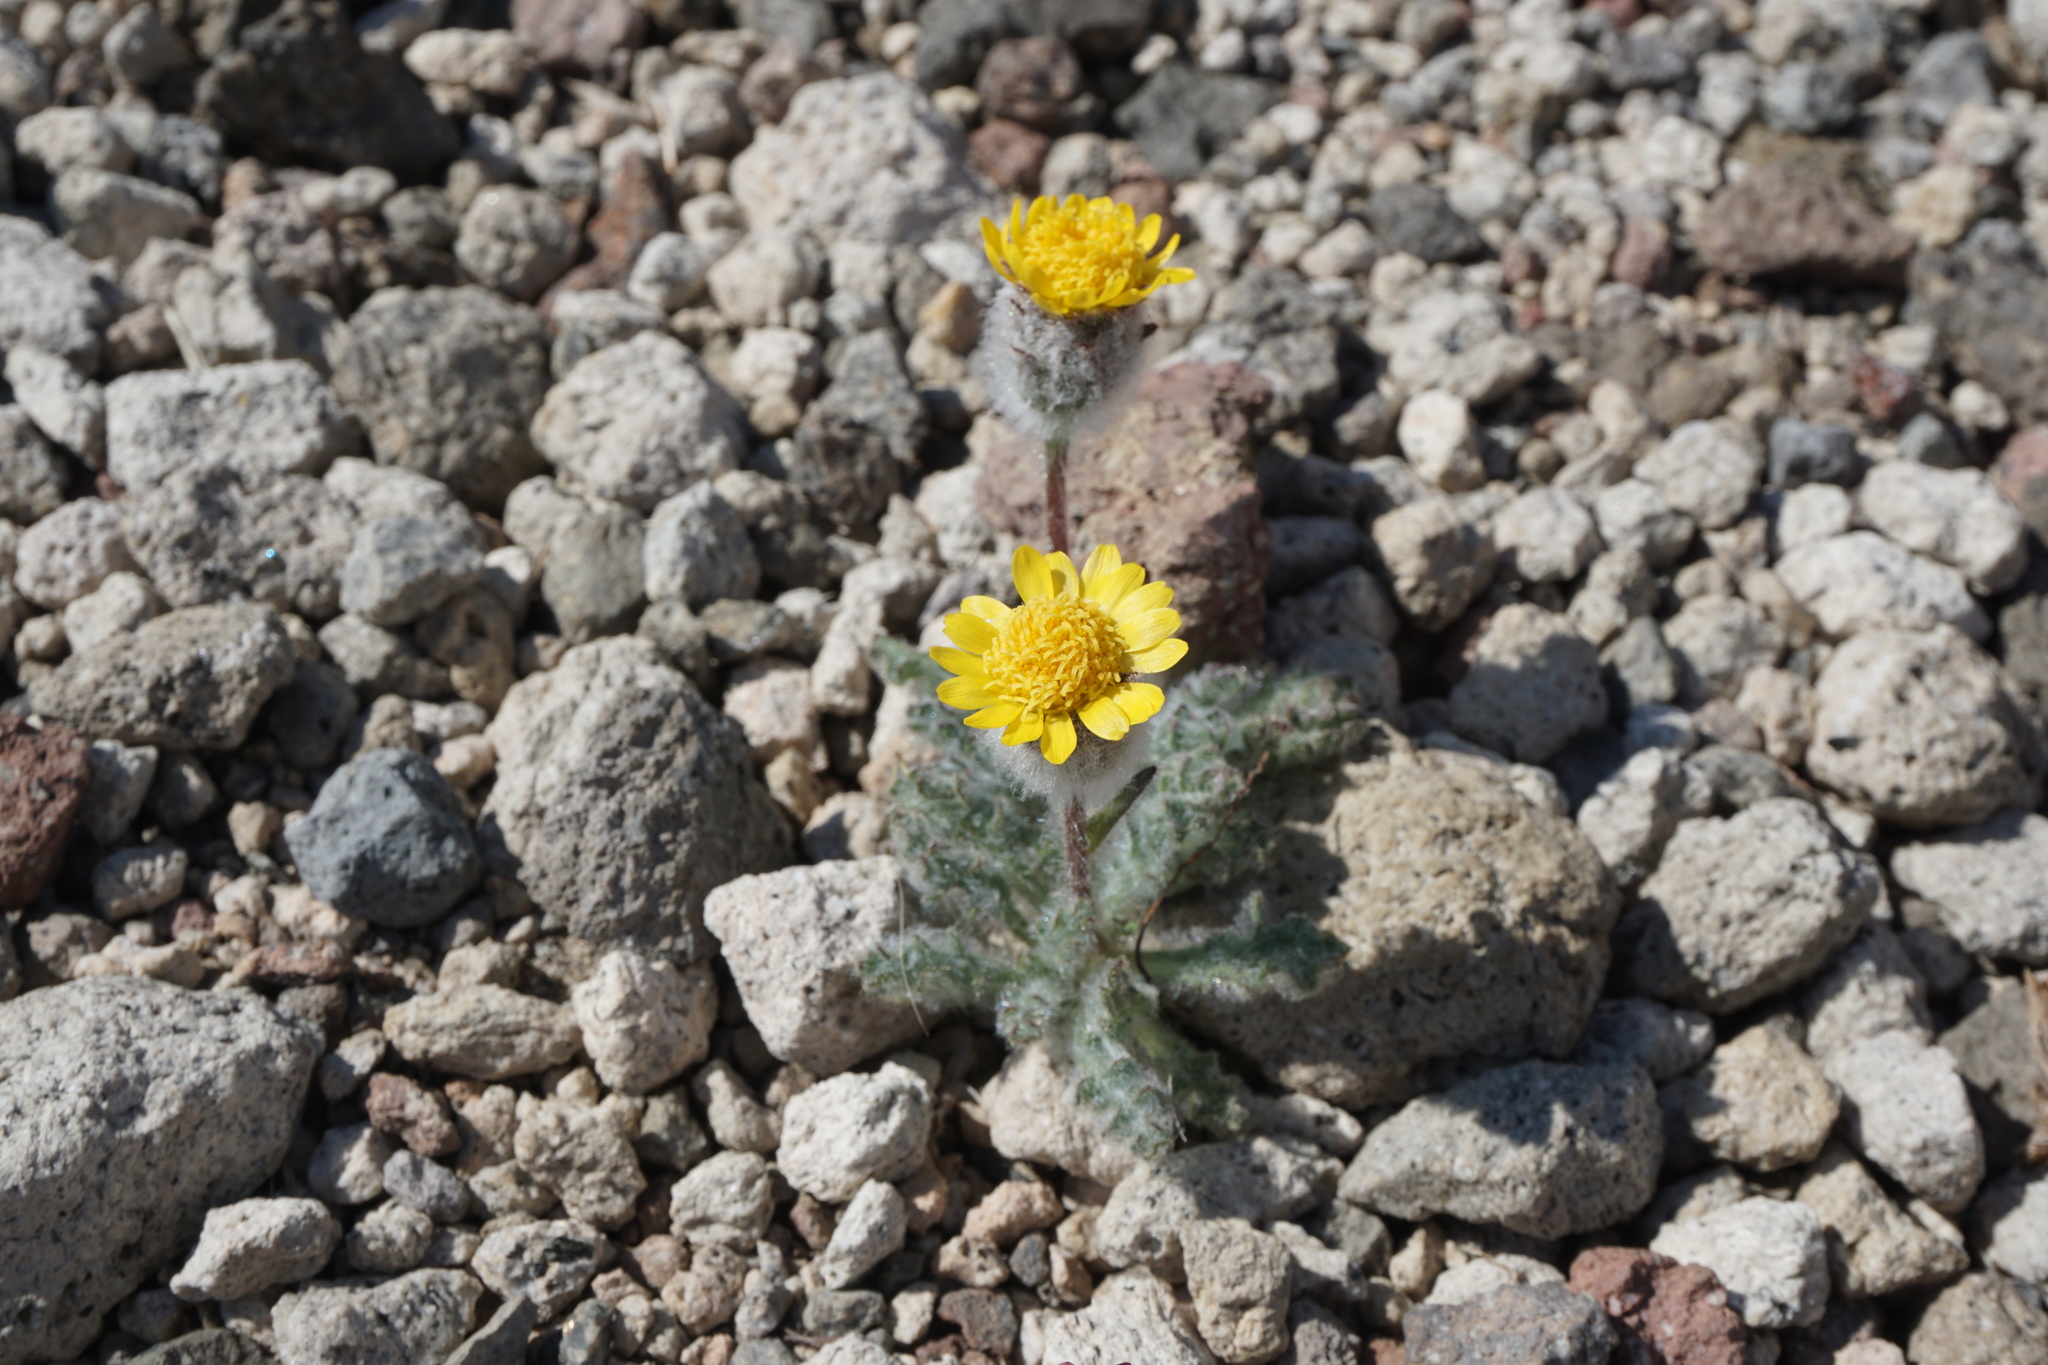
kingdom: Plantae
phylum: Tracheophyta
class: Magnoliopsida
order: Asterales
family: Asteraceae
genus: Hulsea
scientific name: Hulsea nana
